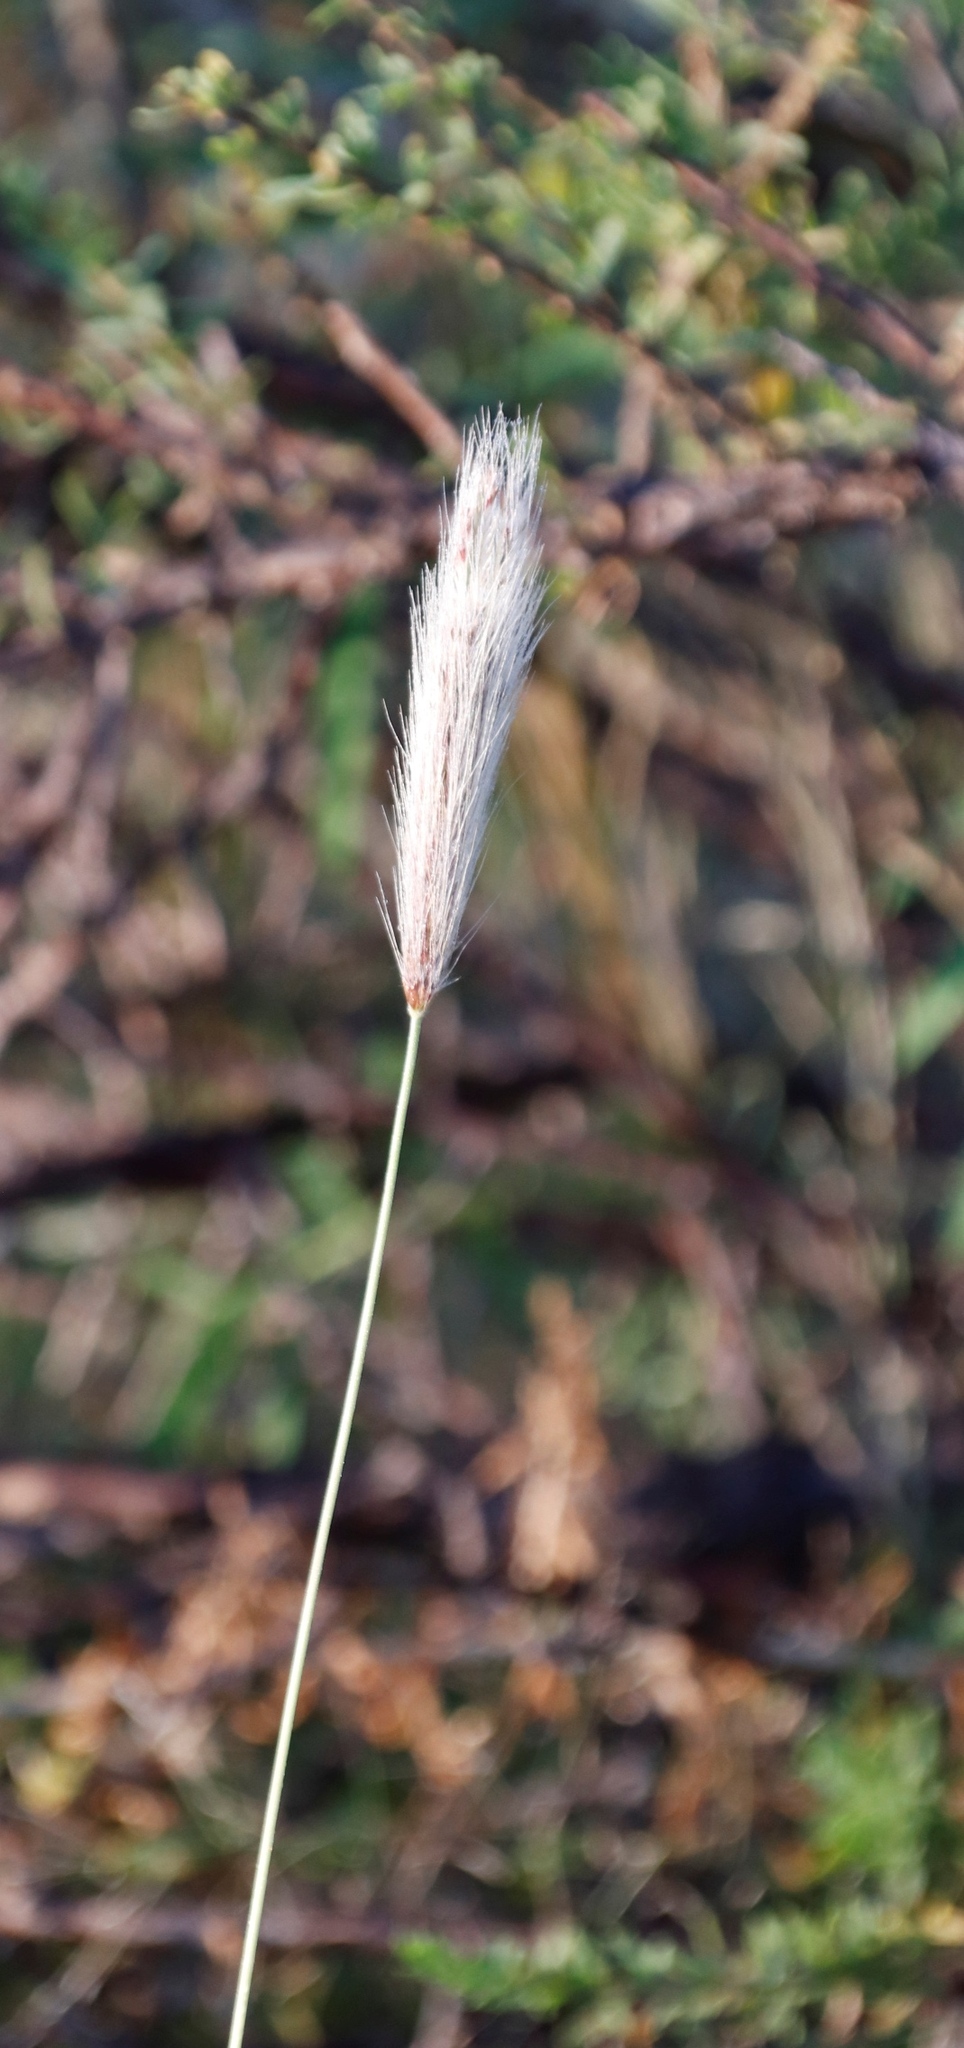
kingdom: Plantae
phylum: Tracheophyta
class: Liliopsida
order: Poales
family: Poaceae
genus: Chloris
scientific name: Chloris virgata
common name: Feathery rhodes-grass
